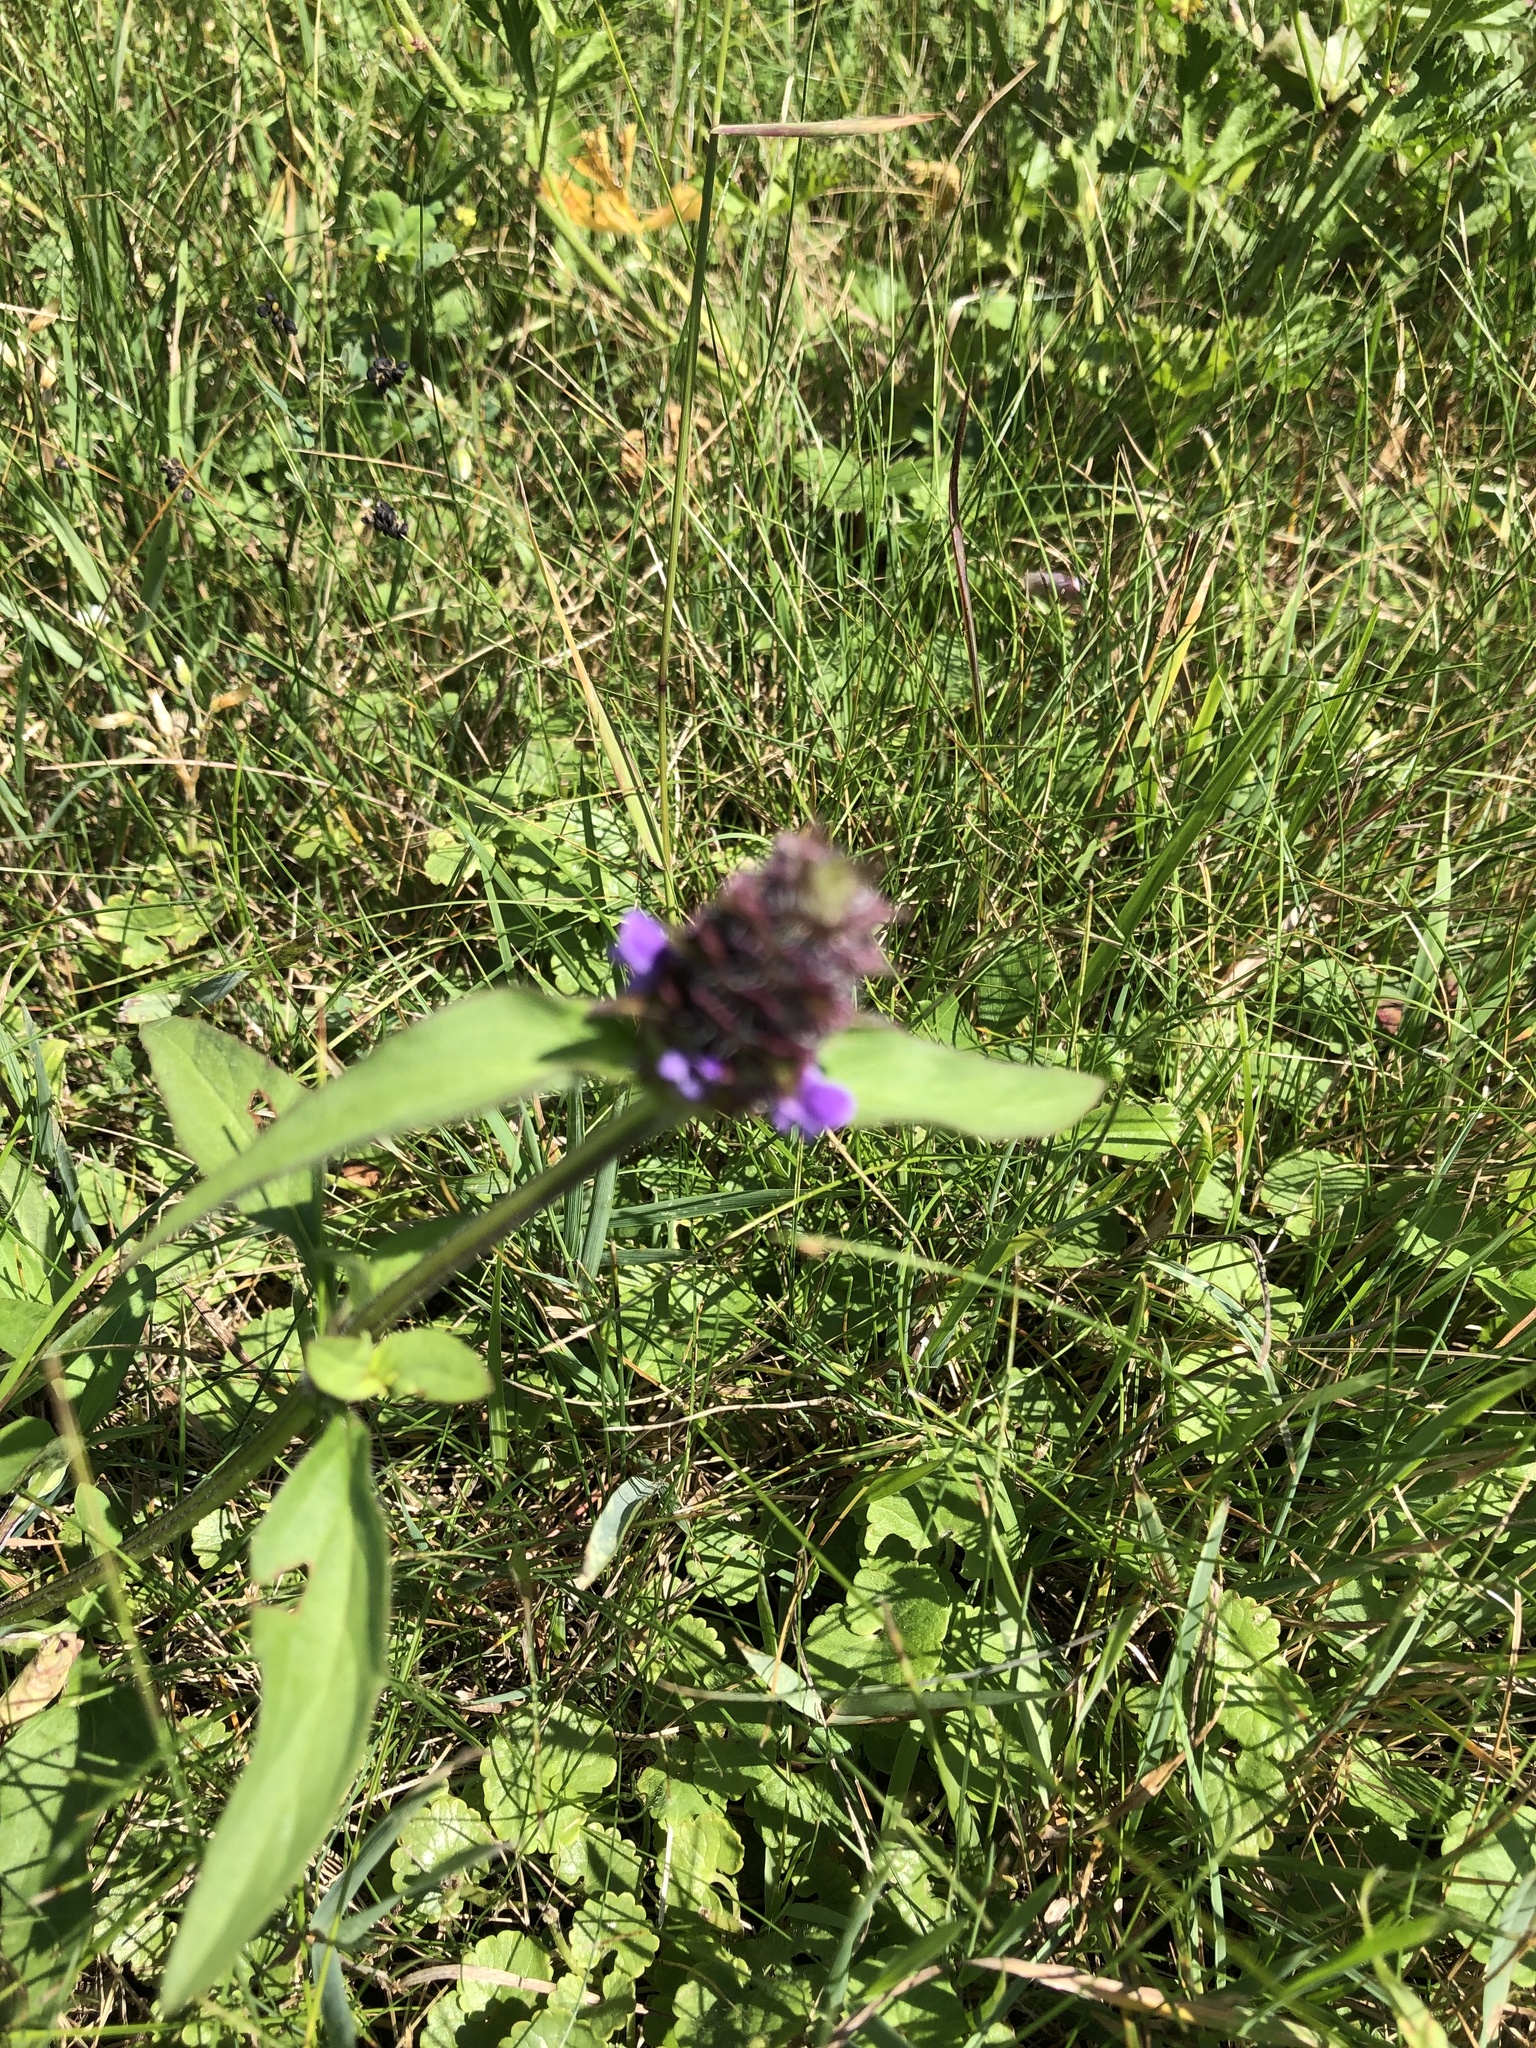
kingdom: Plantae
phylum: Tracheophyta
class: Magnoliopsida
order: Lamiales
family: Lamiaceae
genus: Prunella
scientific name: Prunella vulgaris
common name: Heal-all
